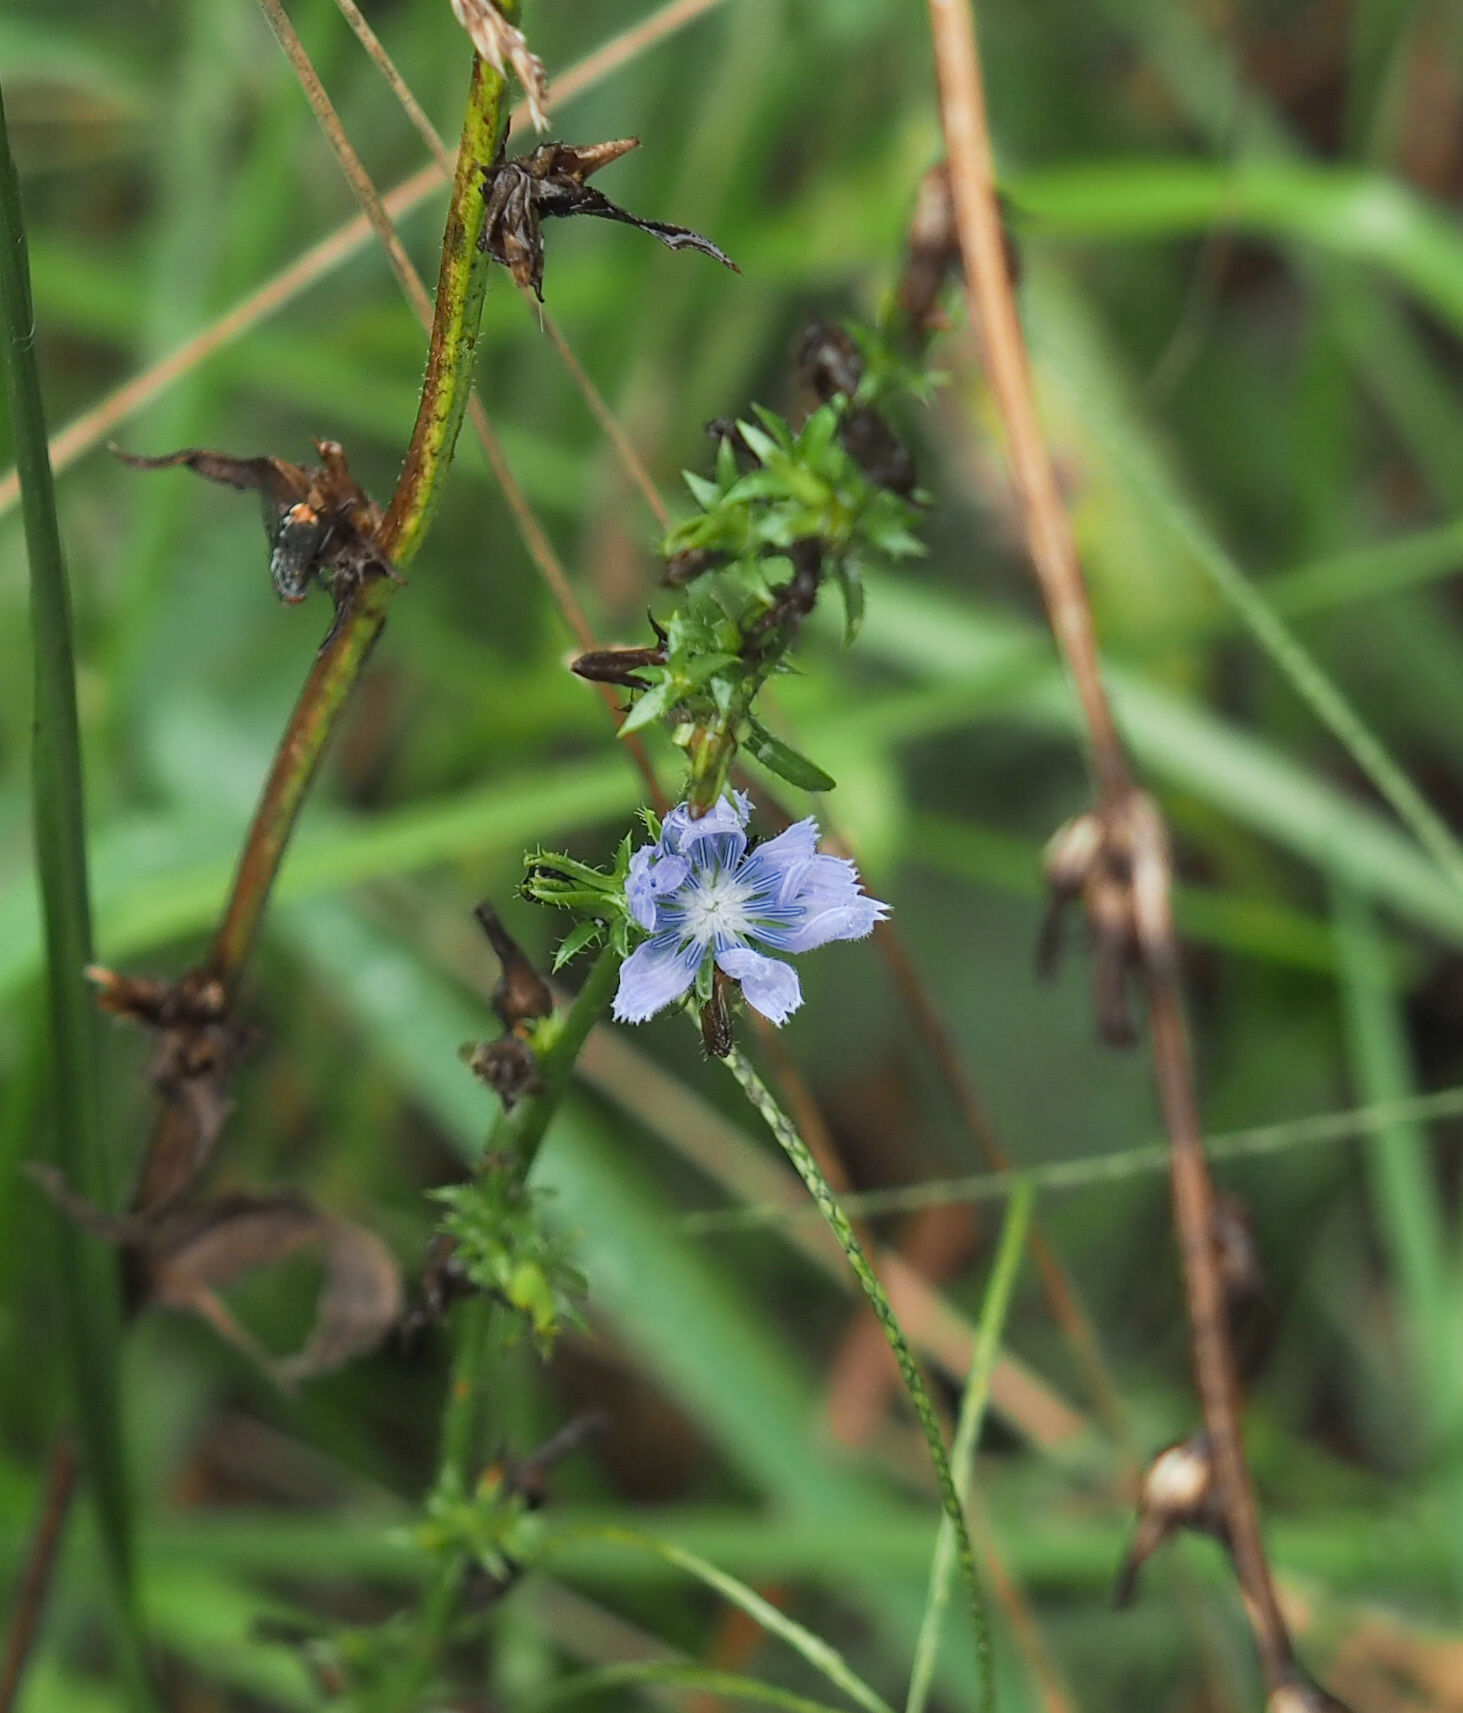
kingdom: Plantae
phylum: Tracheophyta
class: Magnoliopsida
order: Asterales
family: Asteraceae
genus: Cichorium
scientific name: Cichorium intybus
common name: Chicory
